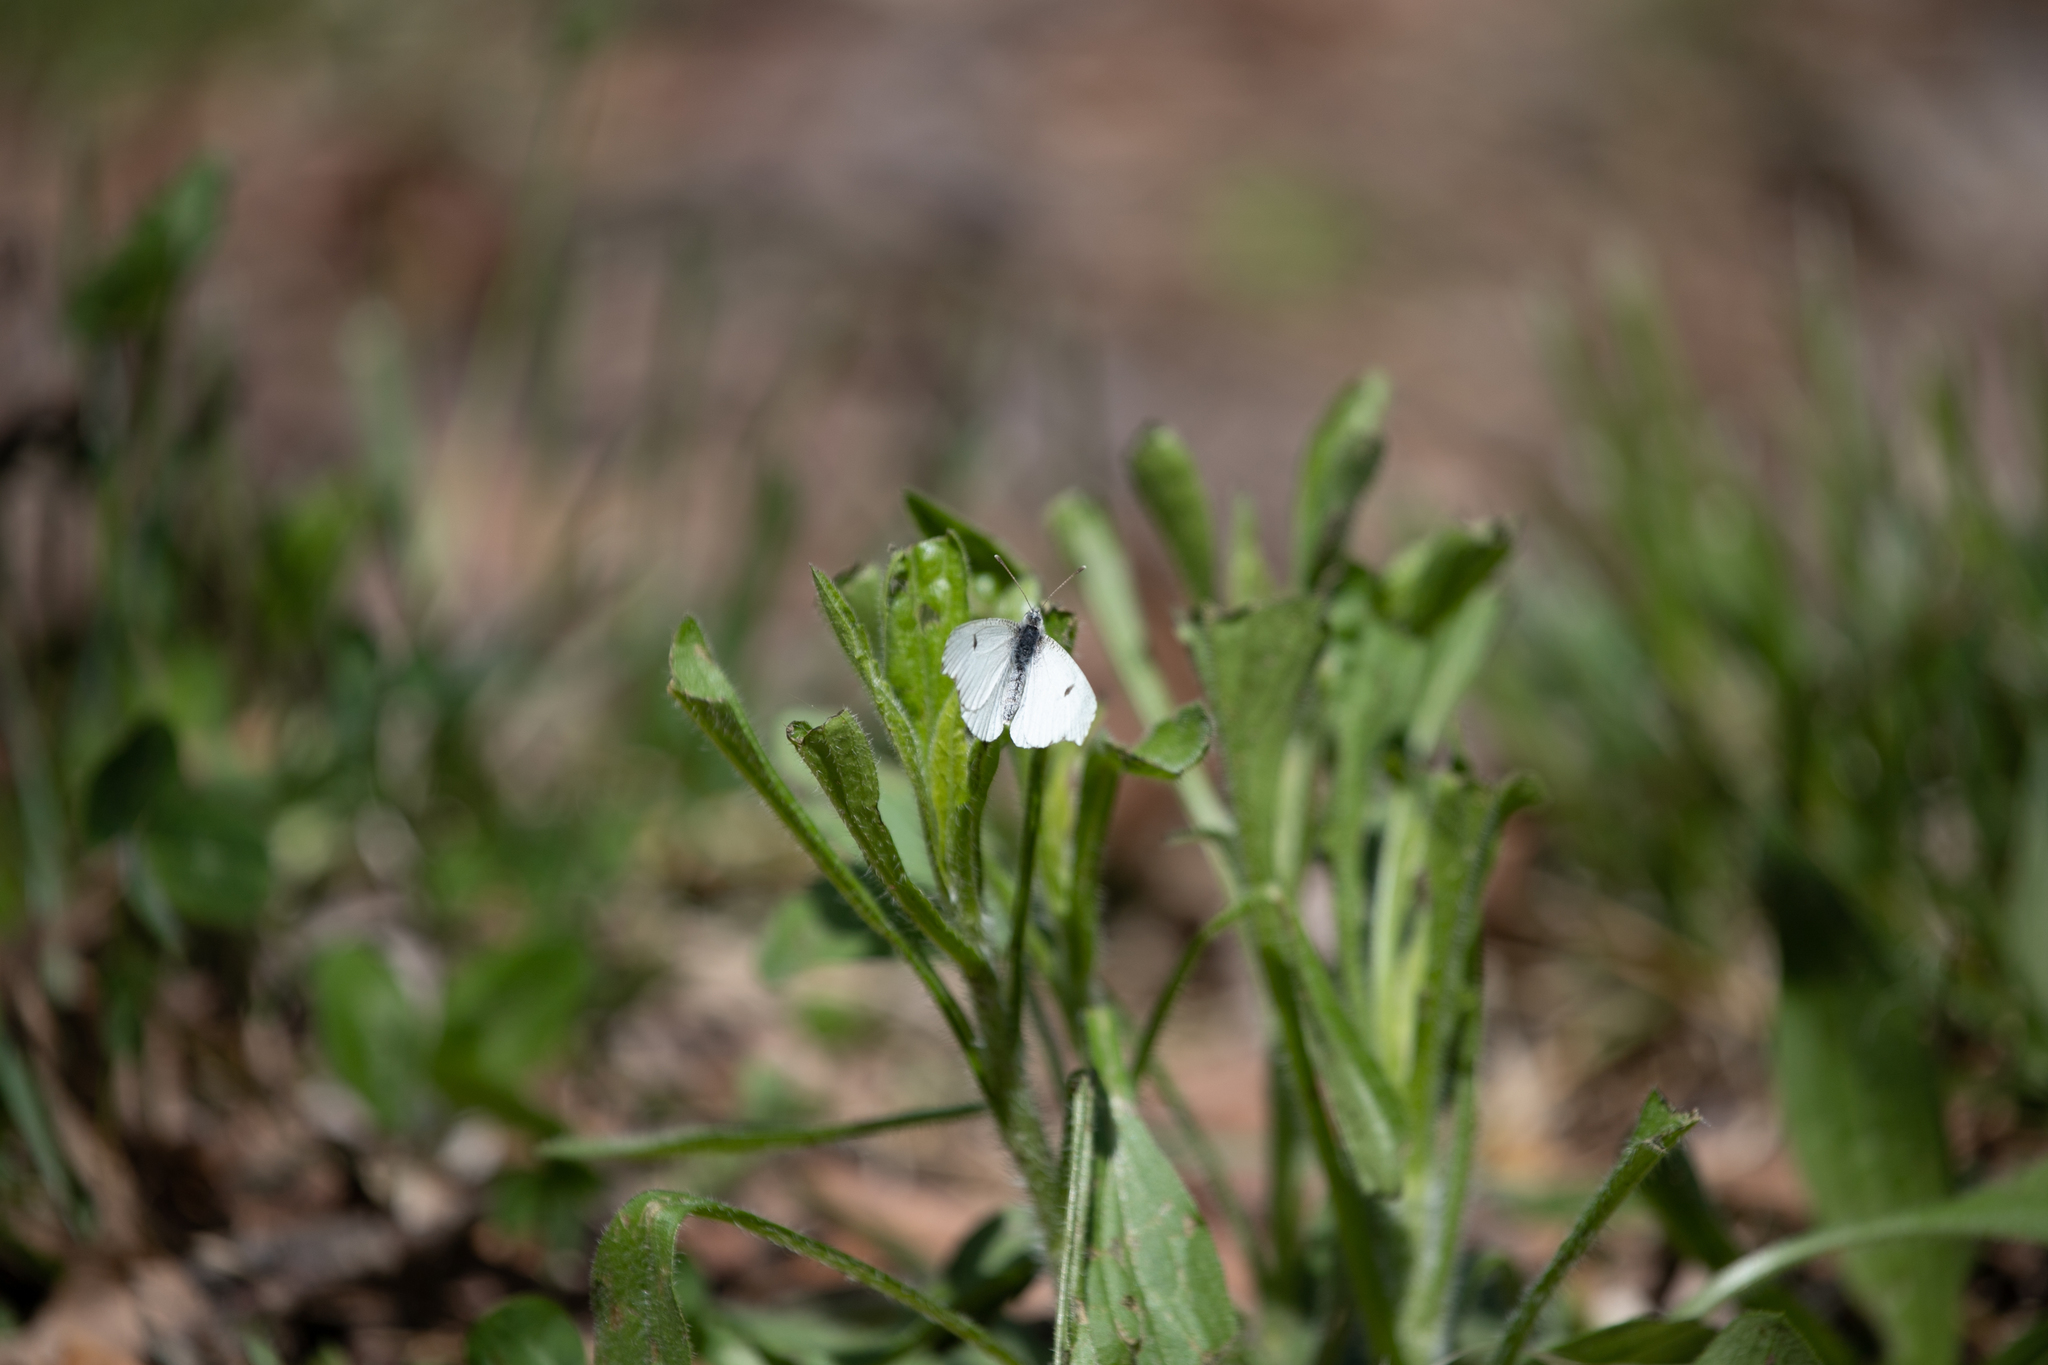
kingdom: Animalia
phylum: Arthropoda
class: Insecta
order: Lepidoptera
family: Pieridae
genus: Anthocharis
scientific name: Anthocharis midea
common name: Falcate orangetip
